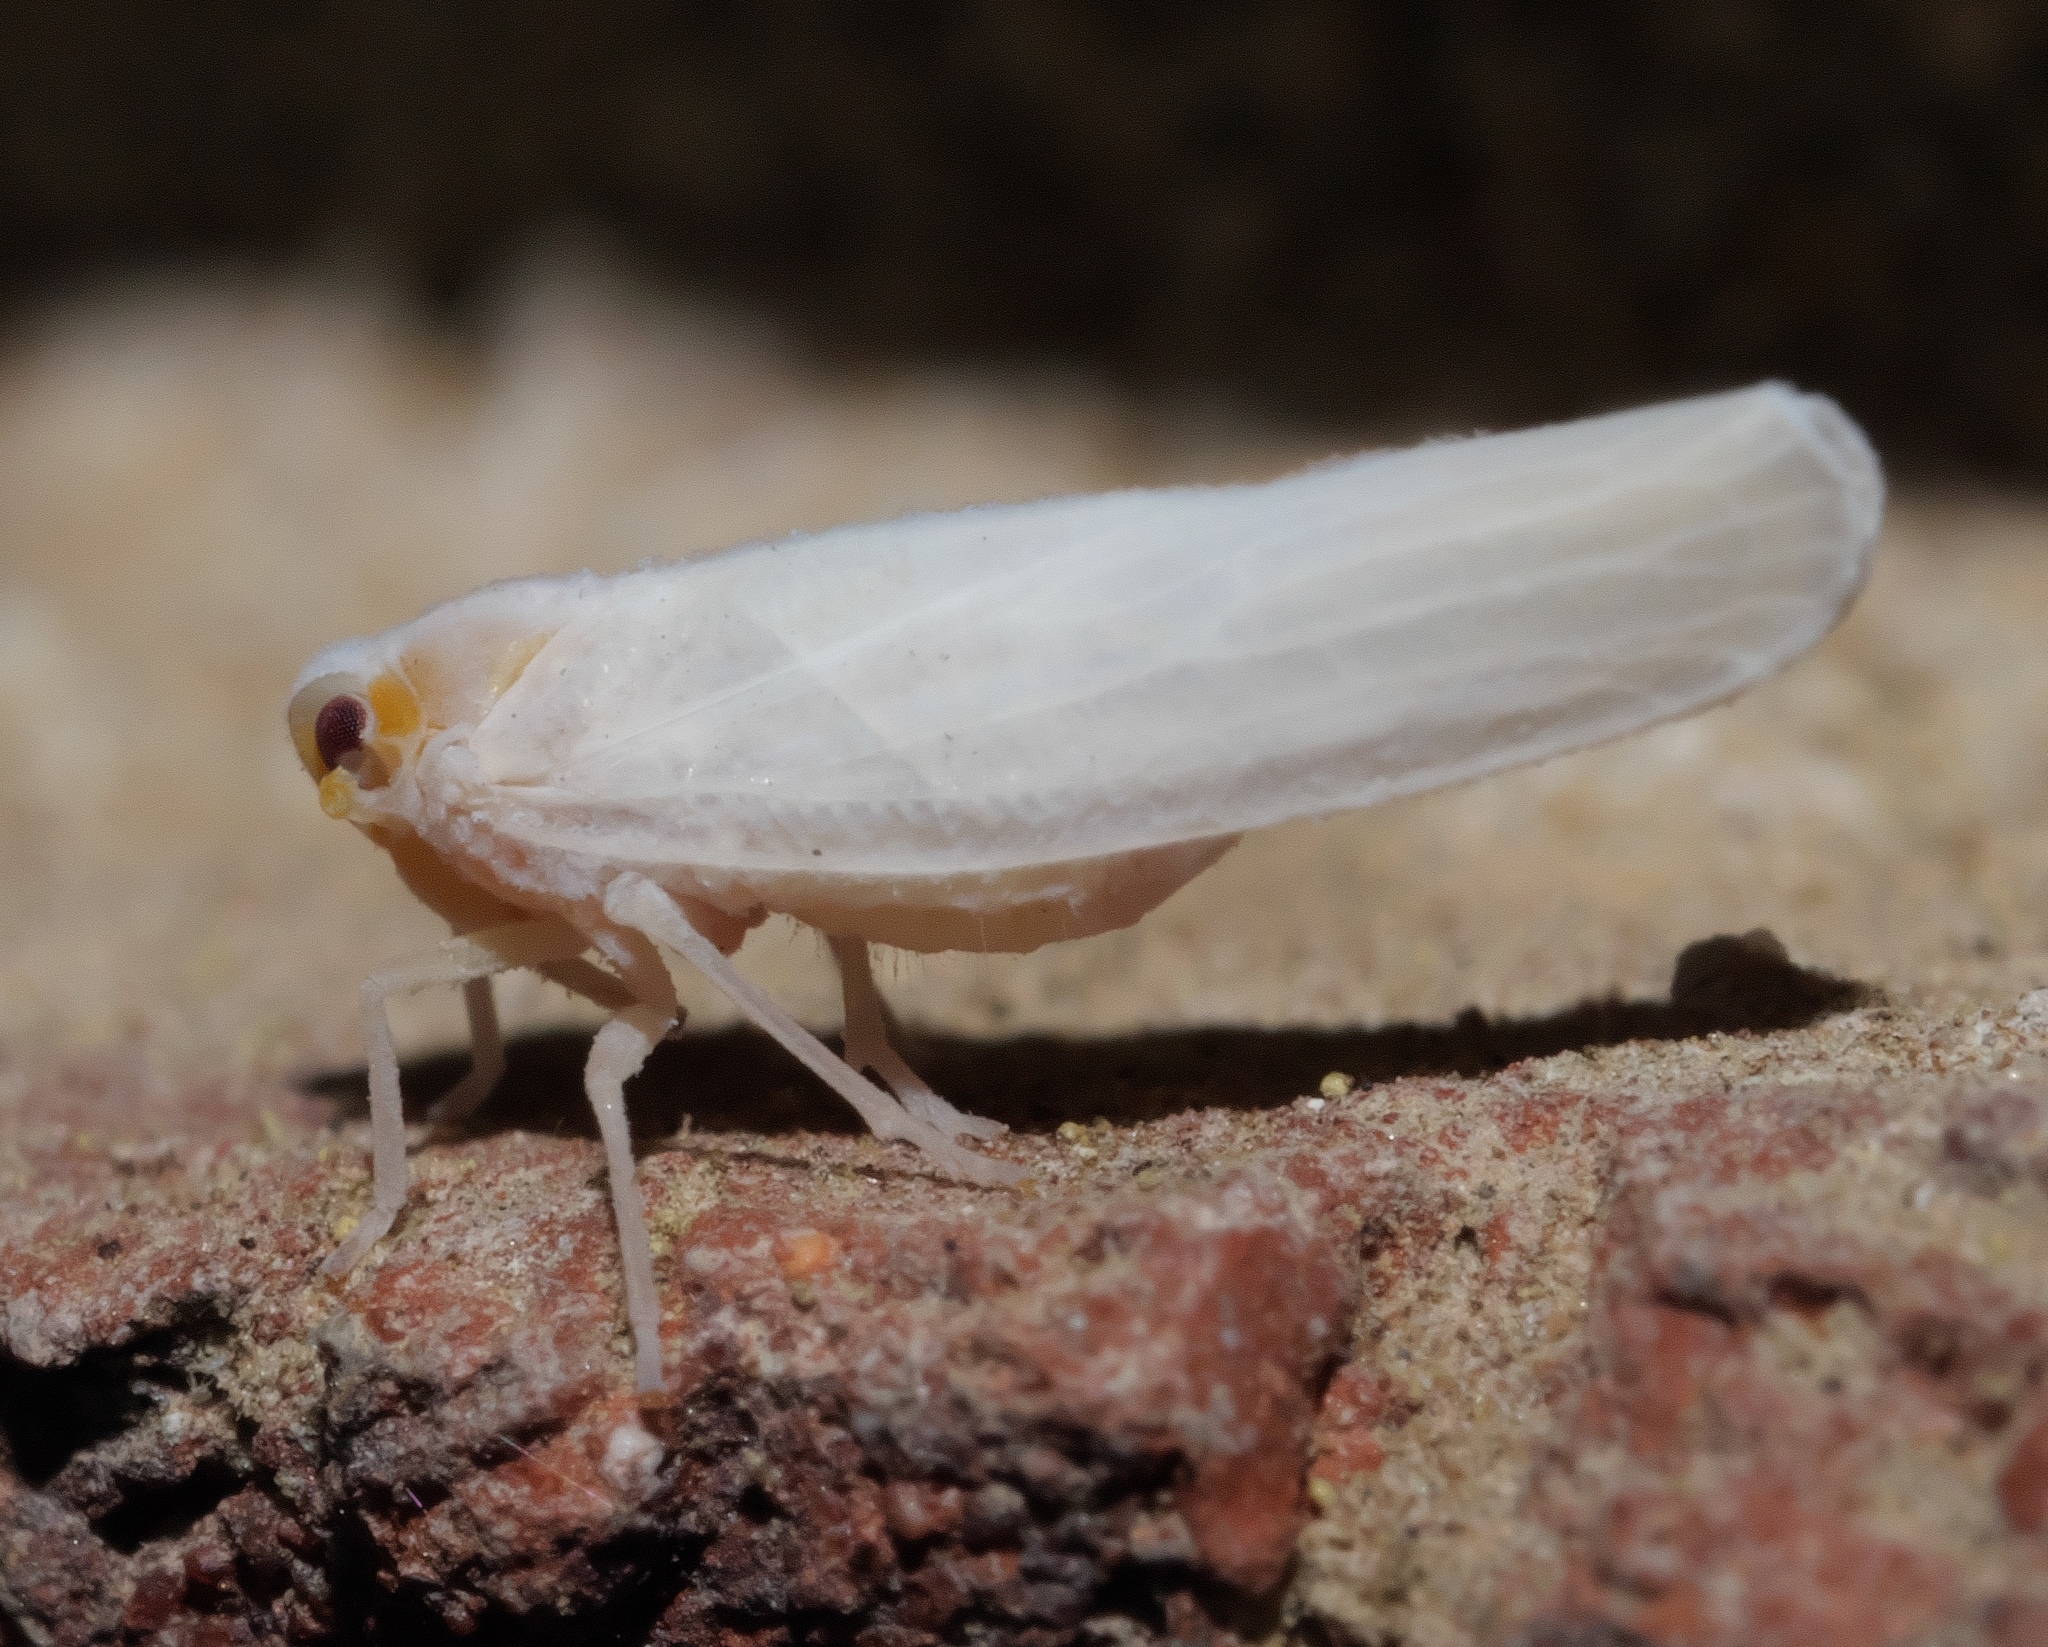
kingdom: Animalia
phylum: Arthropoda
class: Insecta
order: Hemiptera
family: Derbidae
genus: Neocenchrea
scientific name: Neocenchrea heidemanni
